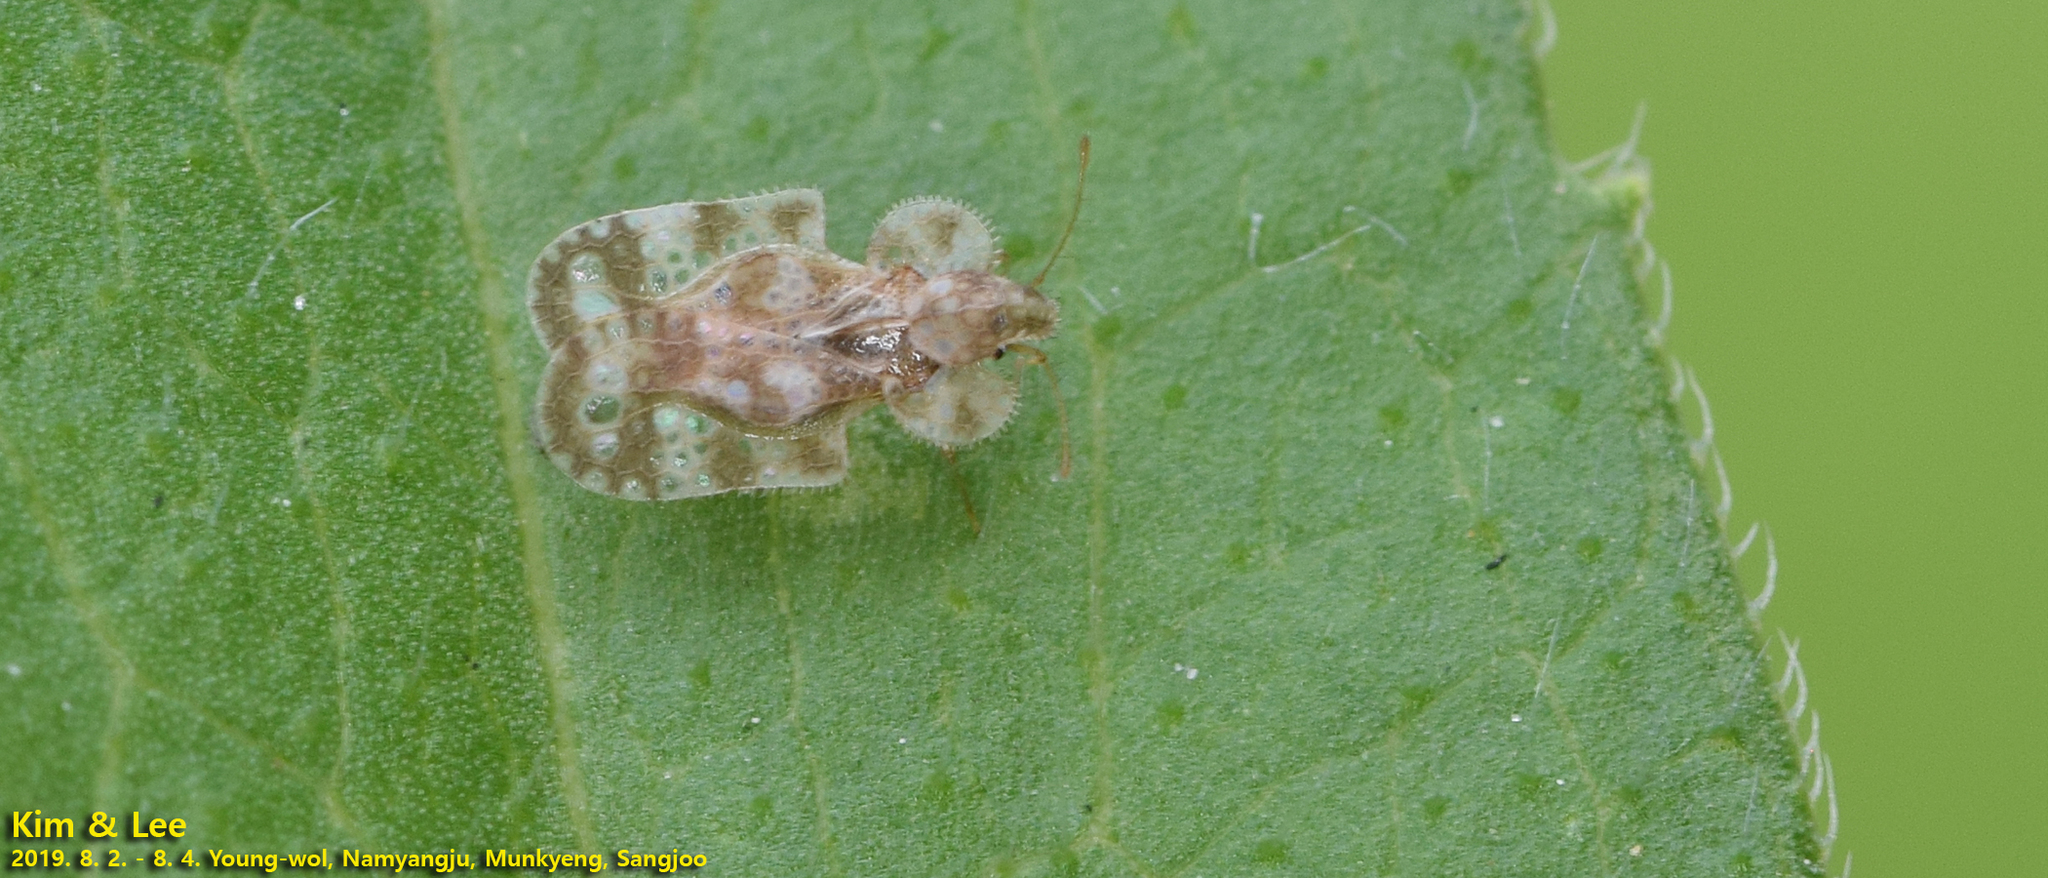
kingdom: Animalia
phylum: Arthropoda
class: Insecta
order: Hemiptera
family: Tingidae
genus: Corythucha
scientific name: Corythucha marmorata
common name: Chrysanthemum lace bug
